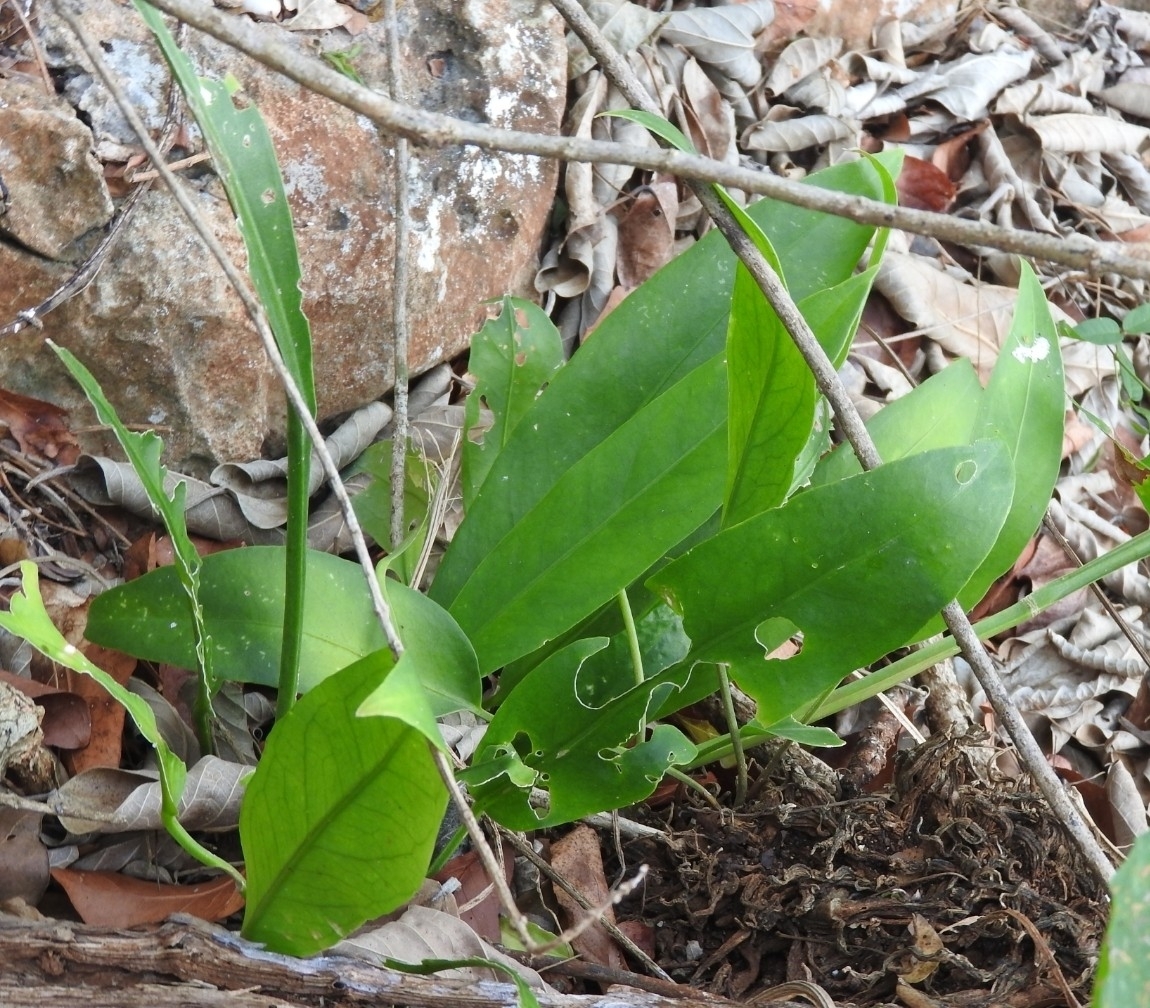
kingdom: Plantae
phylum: Tracheophyta
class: Liliopsida
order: Alismatales
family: Araceae
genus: Anthurium
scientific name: Anthurium schlechtendalii
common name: Laceleaf
